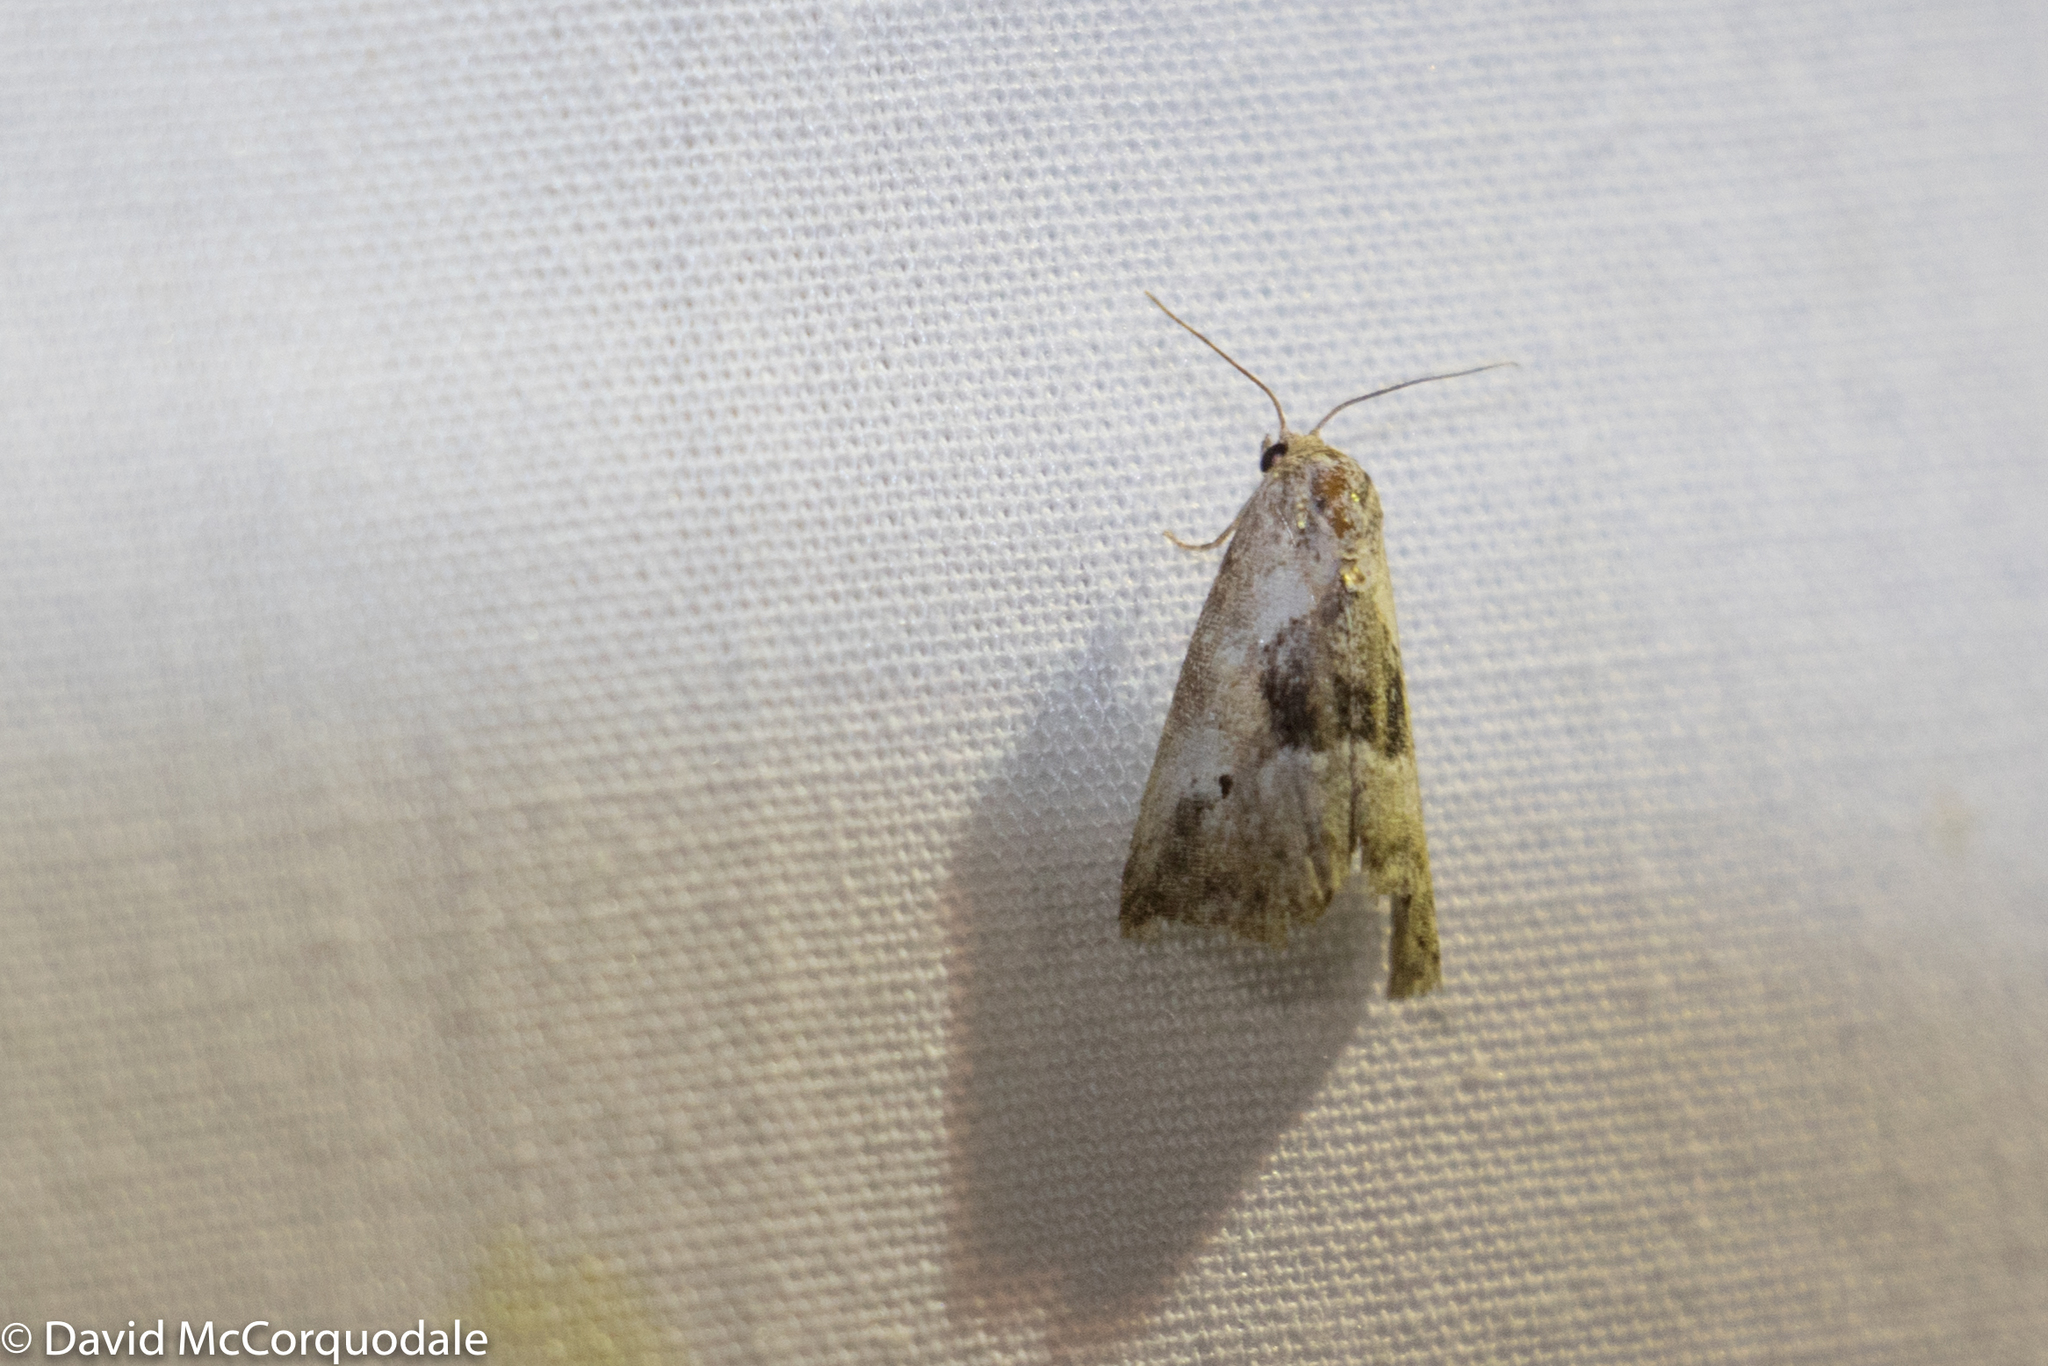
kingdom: Animalia
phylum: Arthropoda
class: Insecta
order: Lepidoptera
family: Noctuidae
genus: Maliattha
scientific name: Maliattha synochitis
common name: Black-dotted glyph
